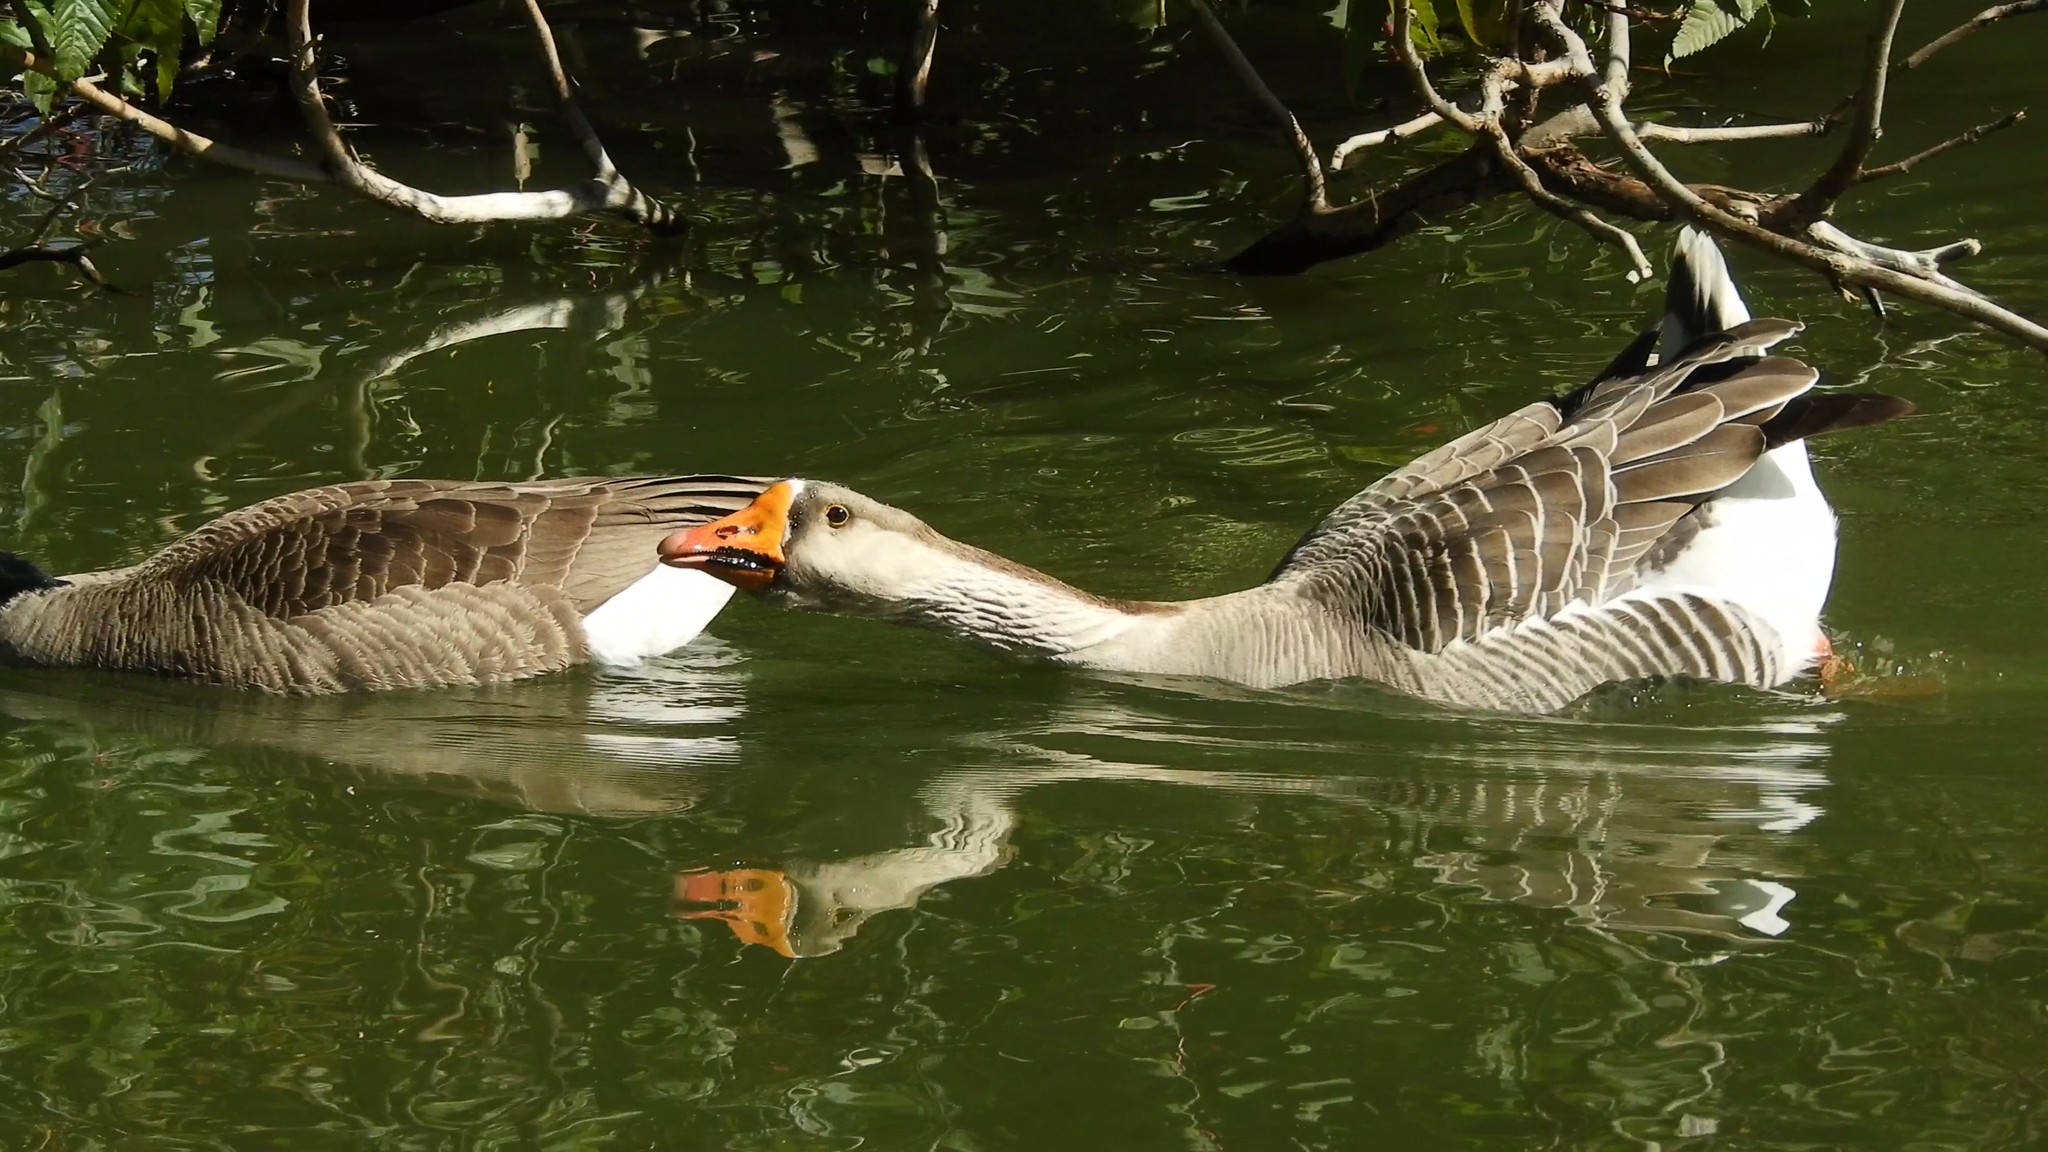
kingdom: Animalia
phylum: Chordata
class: Aves
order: Anseriformes
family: Anatidae
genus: Anser
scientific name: Anser
